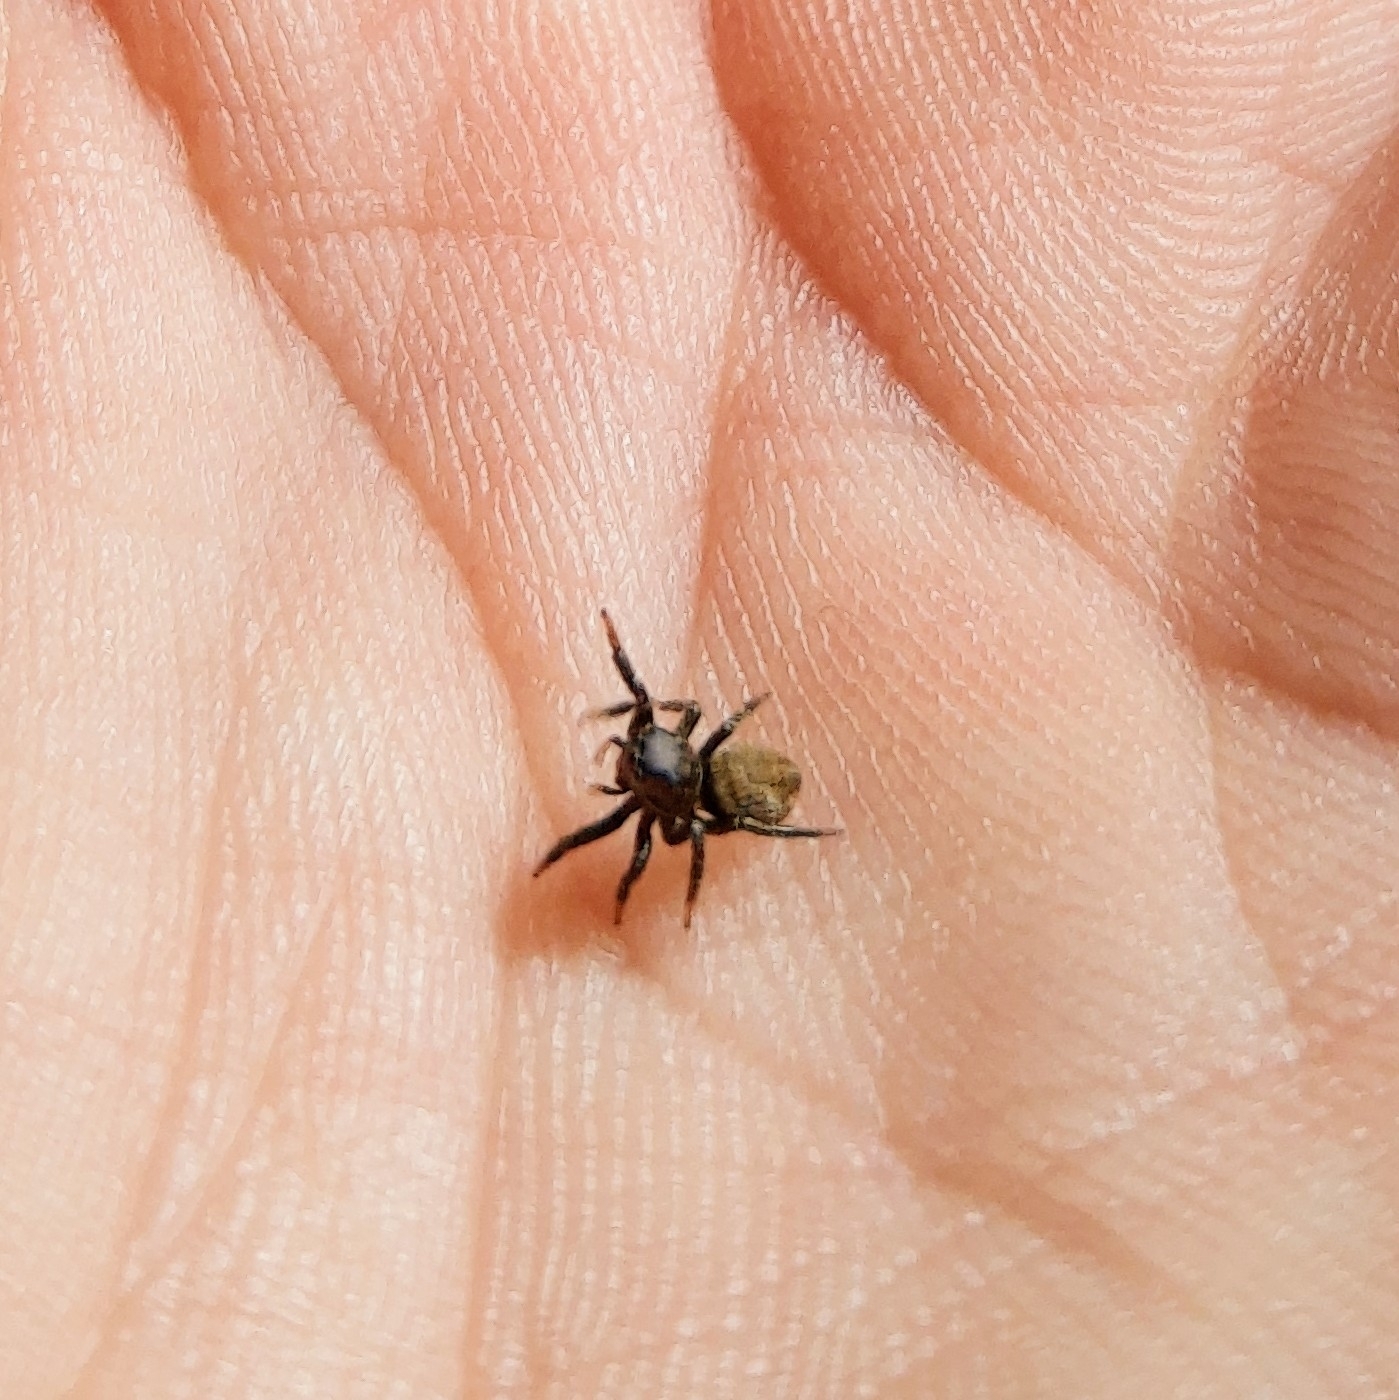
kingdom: Animalia
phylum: Arthropoda
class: Arachnida
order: Araneae
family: Salticidae
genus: Phiale
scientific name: Phiale roburifoliata
